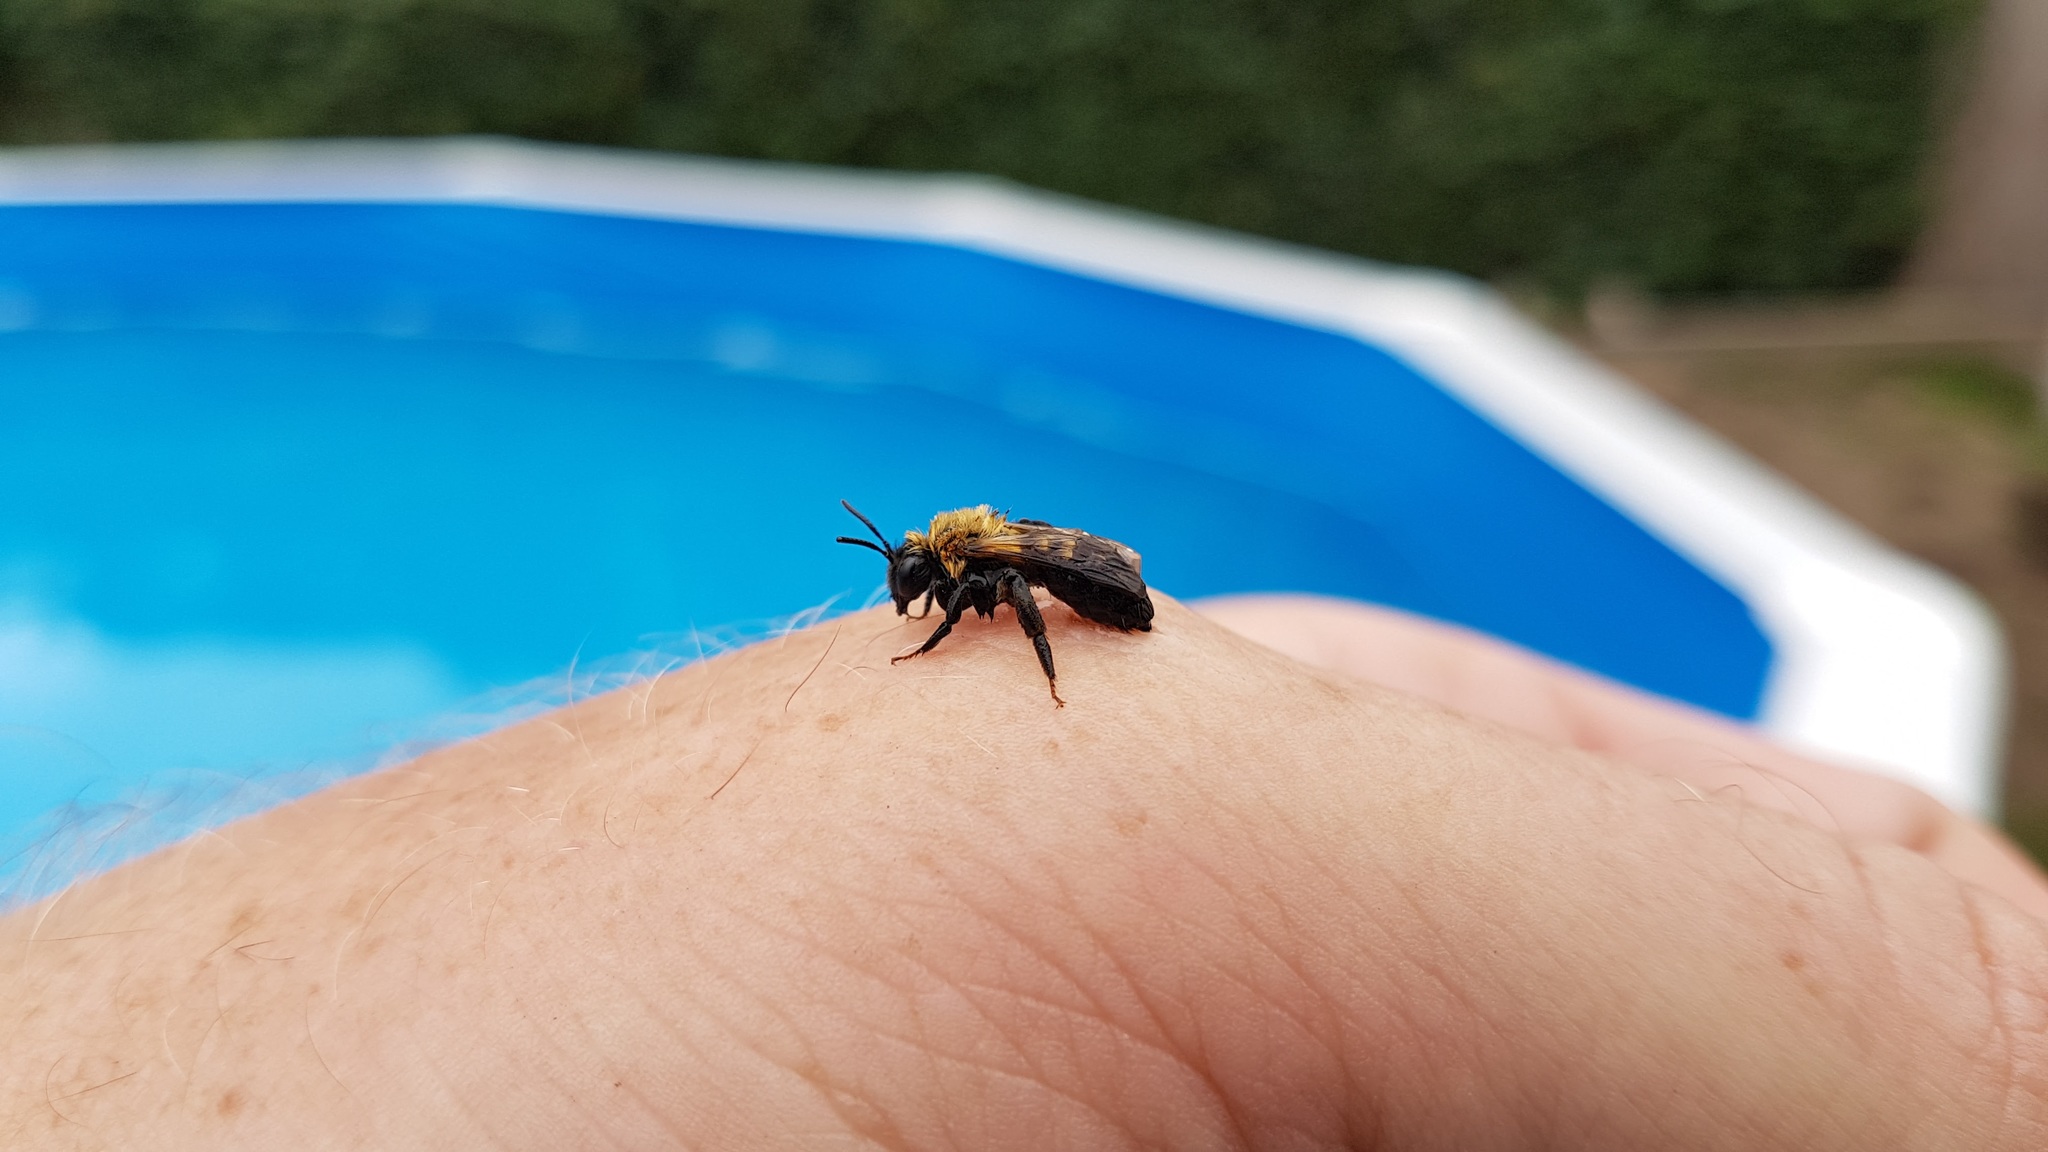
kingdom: Animalia
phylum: Arthropoda
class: Insecta
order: Hymenoptera
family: Andrenidae
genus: Andrena
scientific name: Andrena nigriceps
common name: Black-headed mining bee
